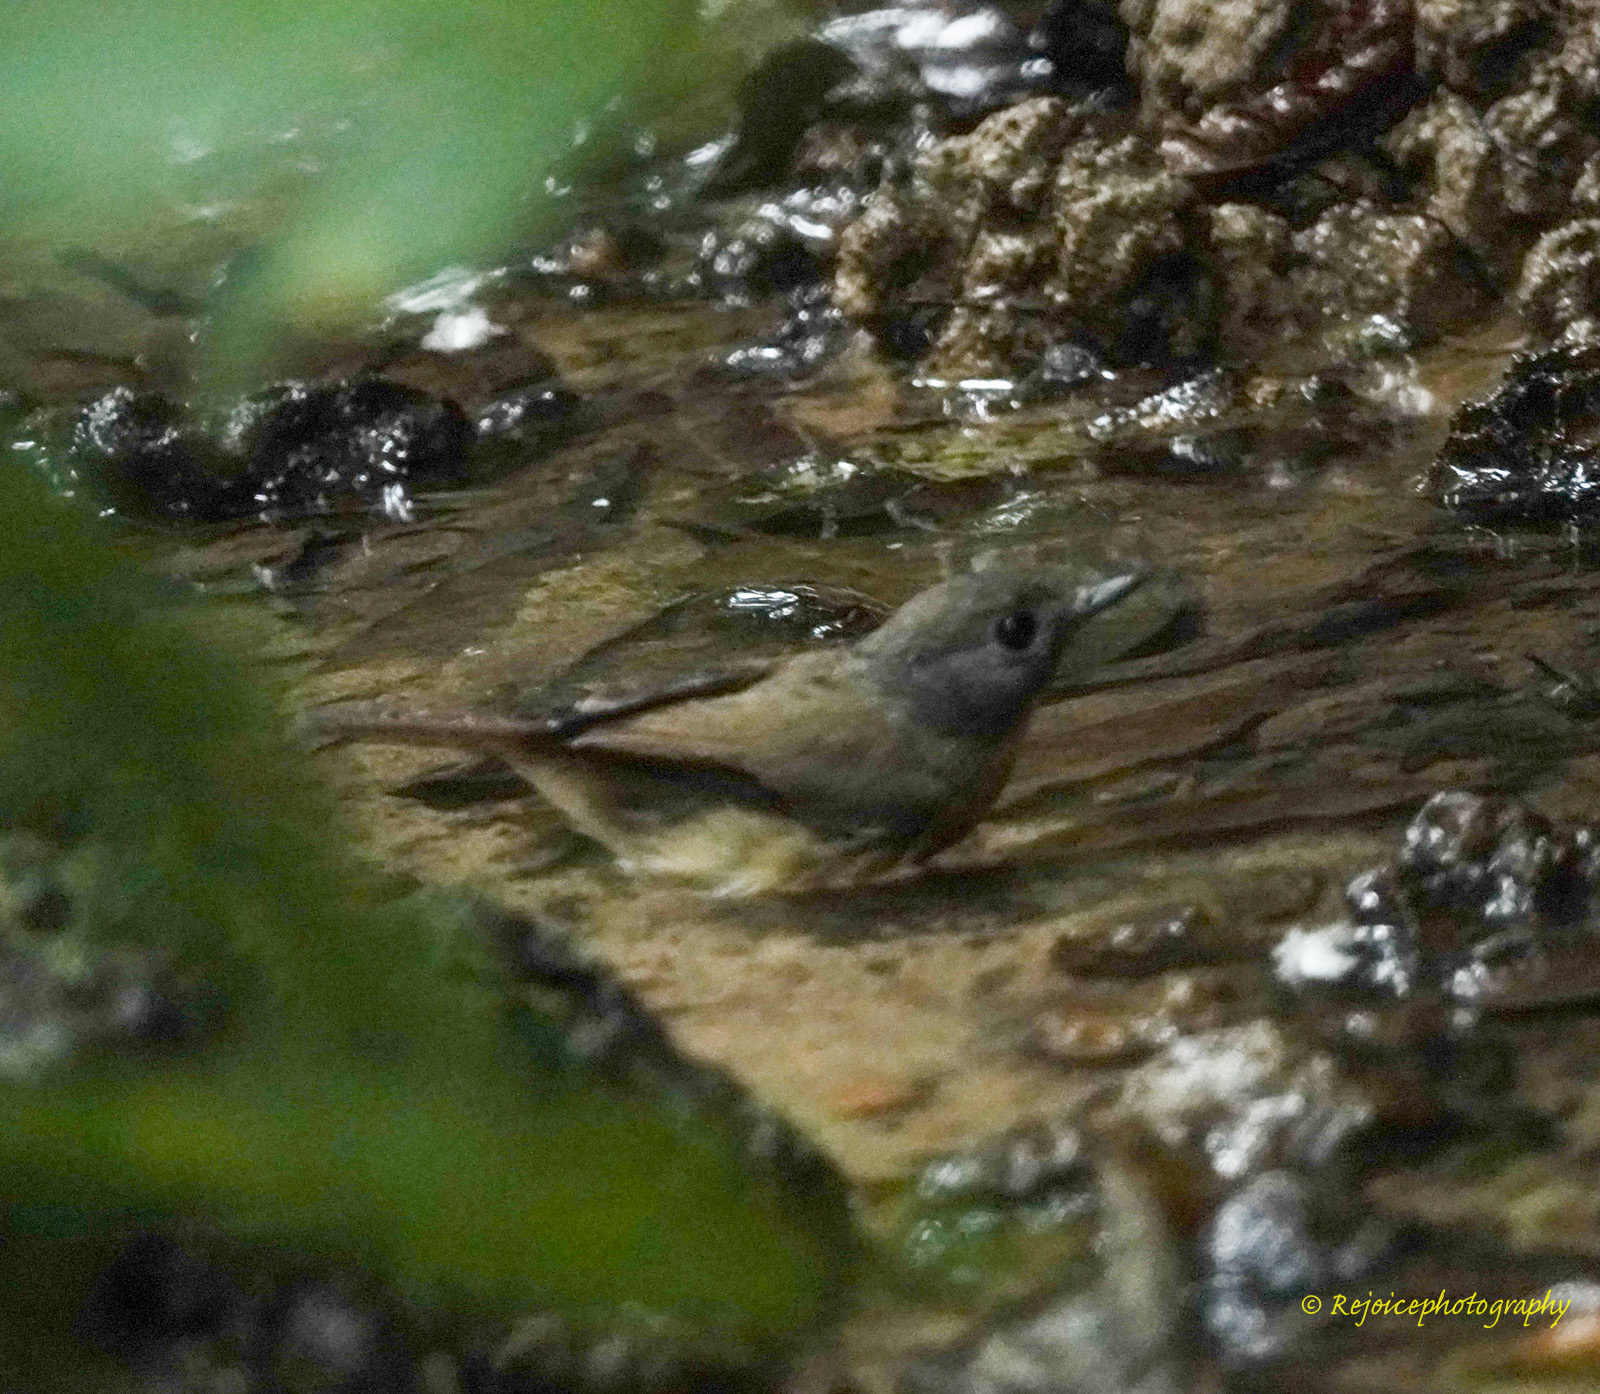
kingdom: Animalia
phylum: Chordata
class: Aves
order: Passeriformes
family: Muscicapidae
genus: Cyornis
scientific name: Cyornis poliogenys
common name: Pale-chinned blue flycatcher
